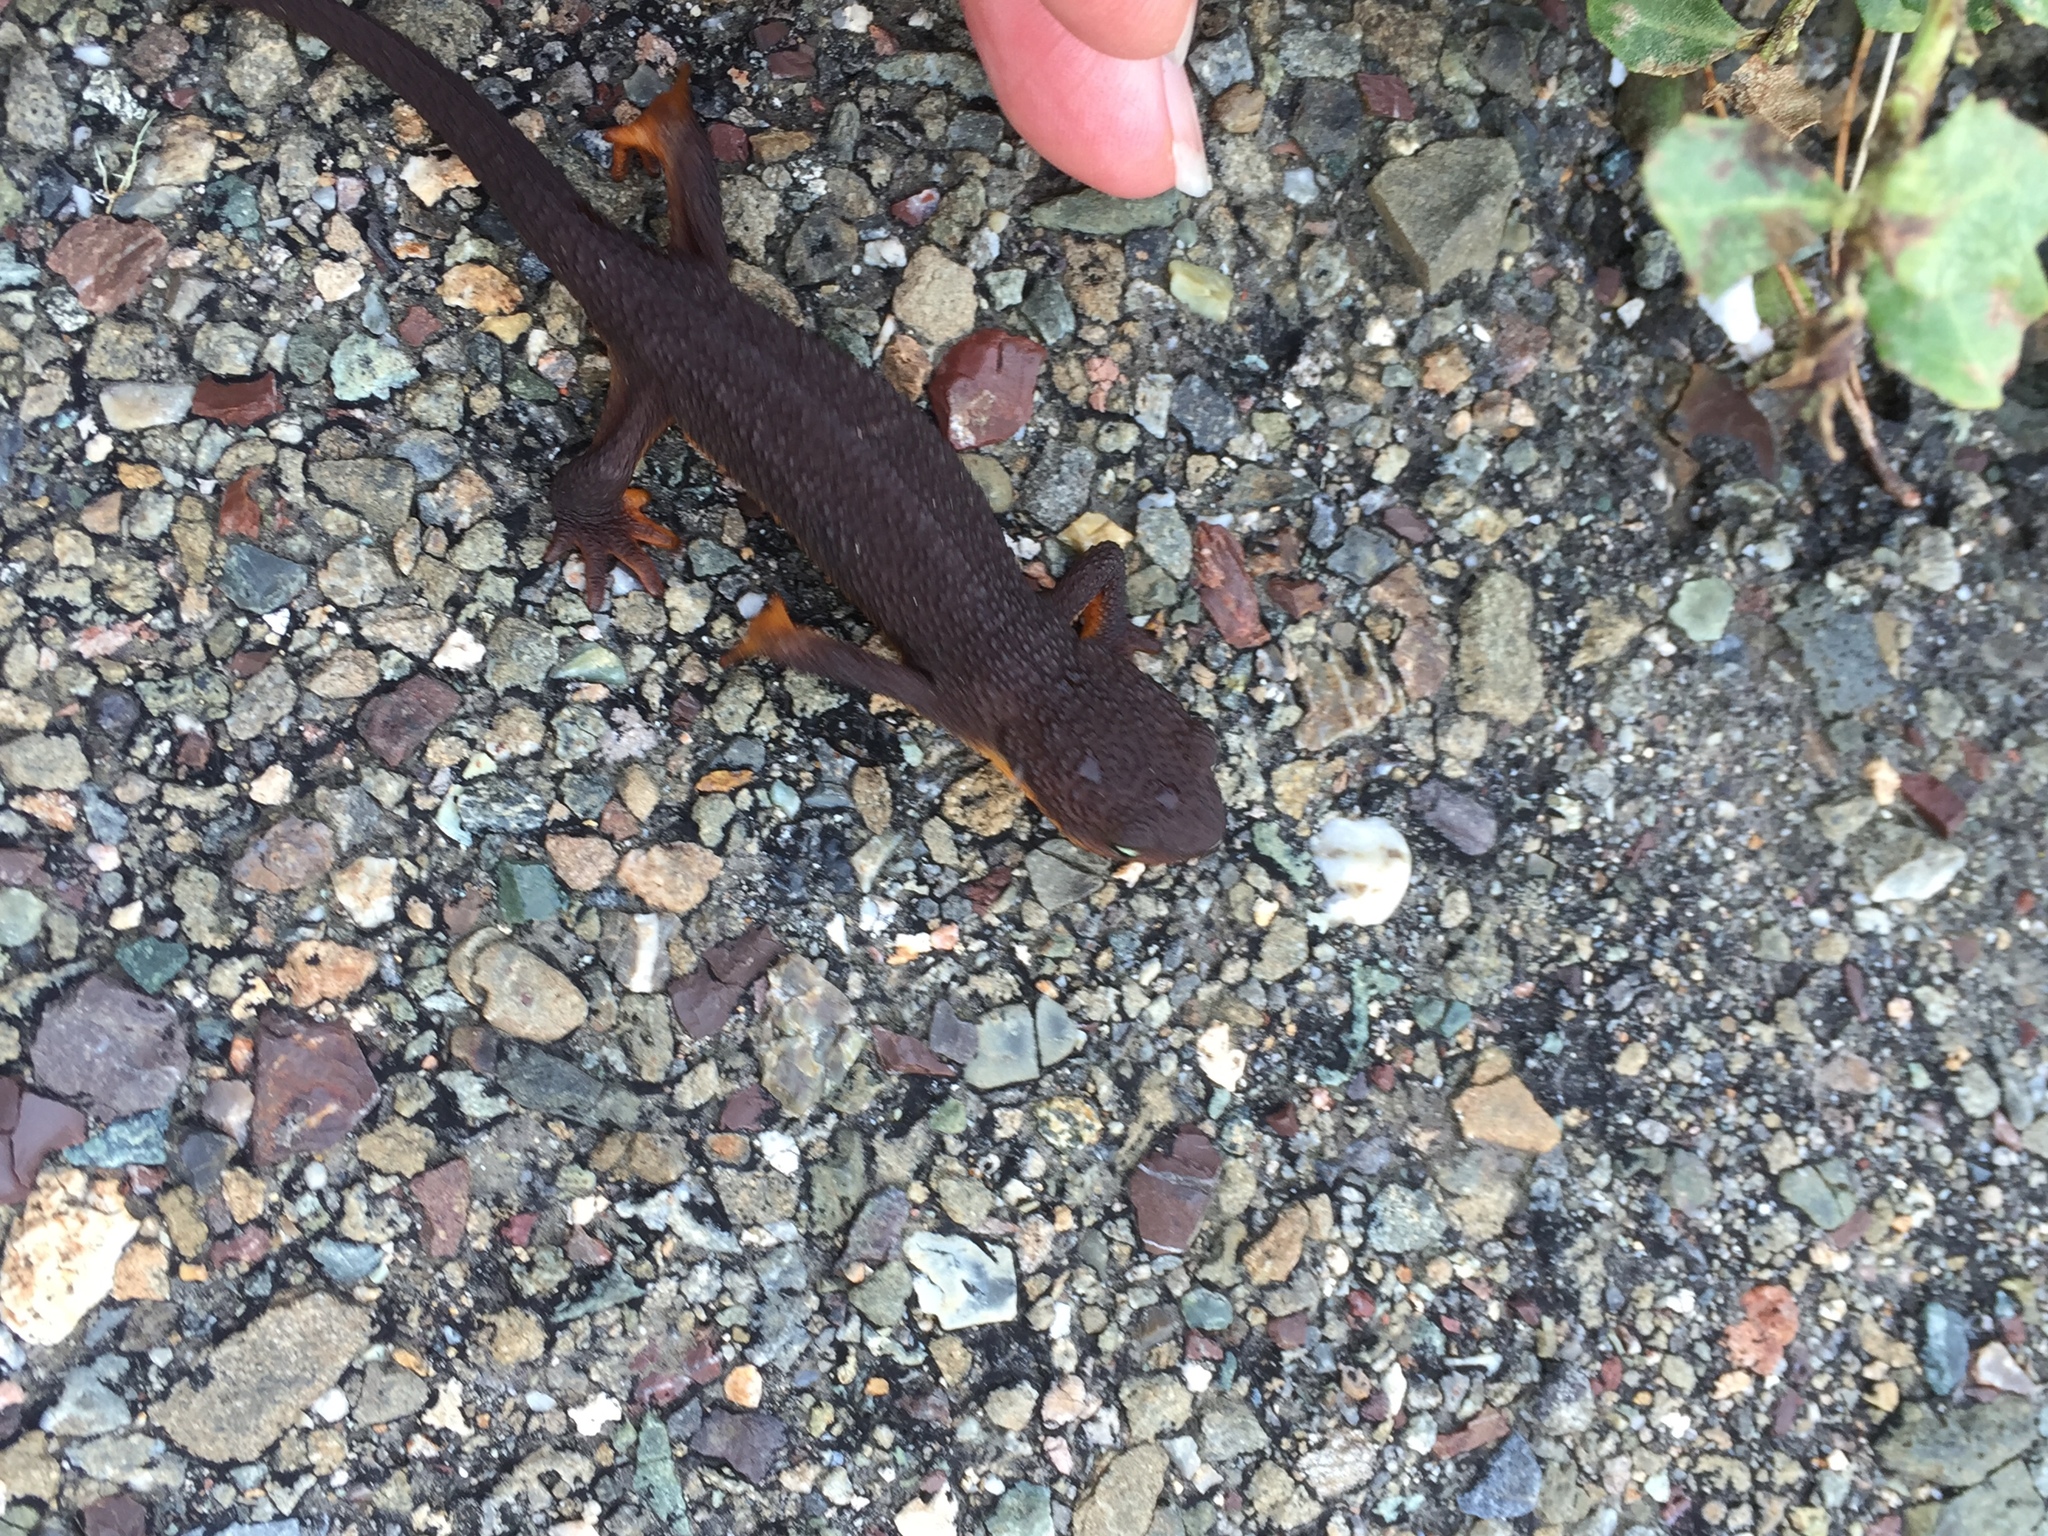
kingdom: Animalia
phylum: Chordata
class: Amphibia
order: Caudata
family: Salamandridae
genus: Taricha
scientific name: Taricha granulosa
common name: Roughskin newt
